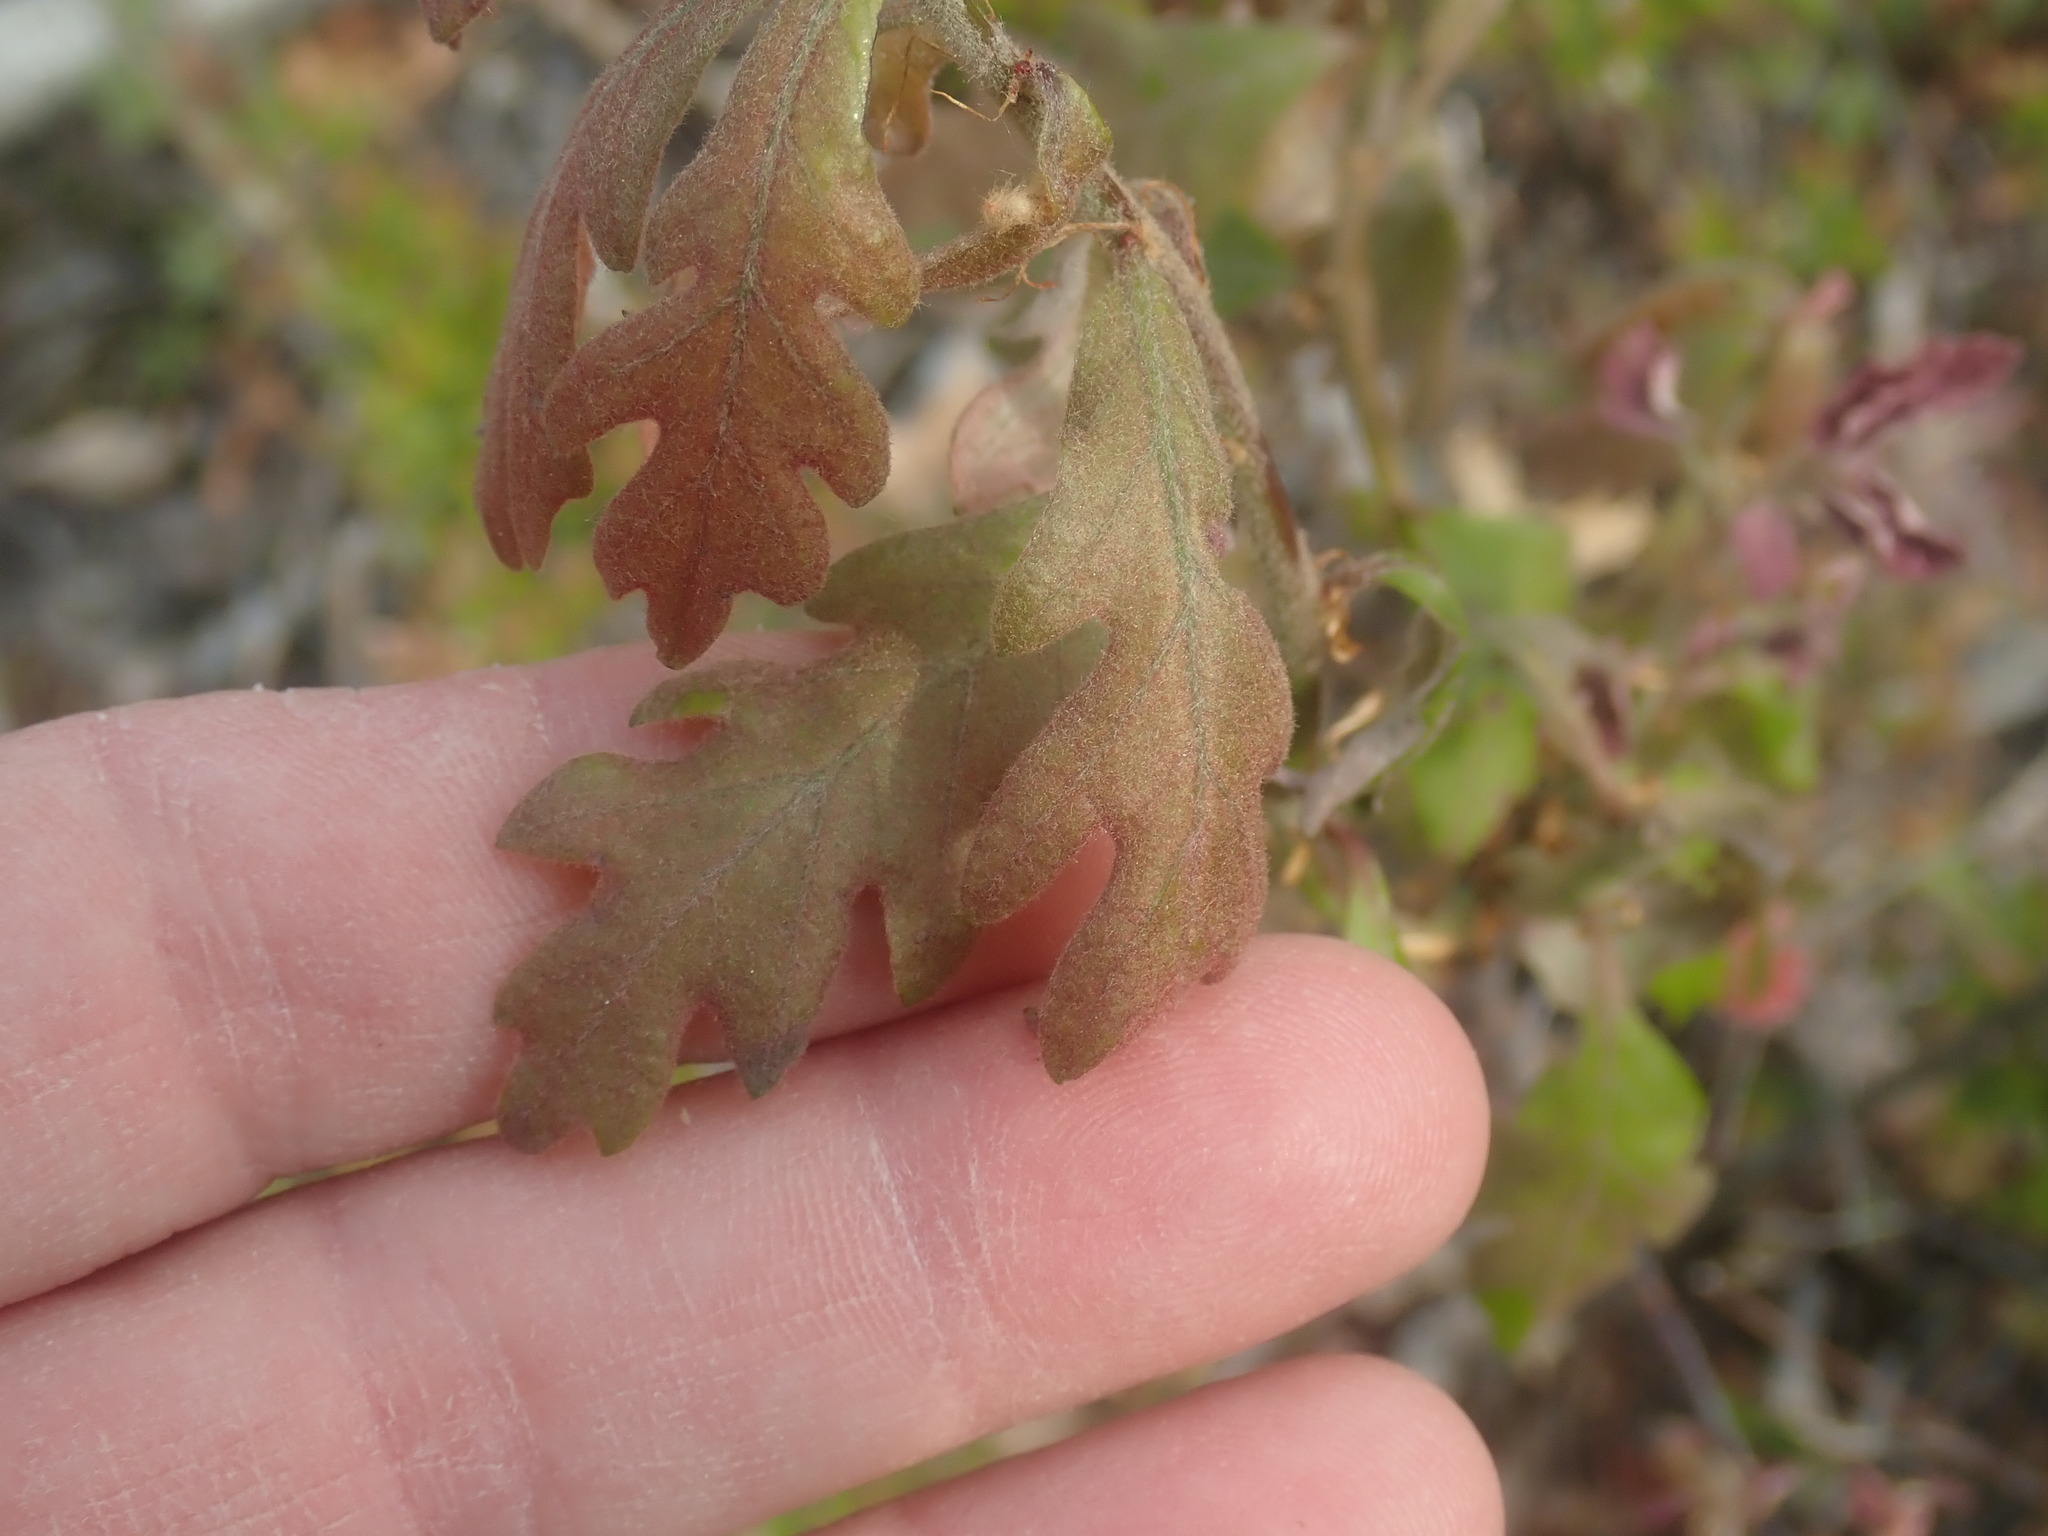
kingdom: Plantae
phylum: Tracheophyta
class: Magnoliopsida
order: Fagales
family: Fagaceae
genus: Quercus
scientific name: Quercus alba
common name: White oak
